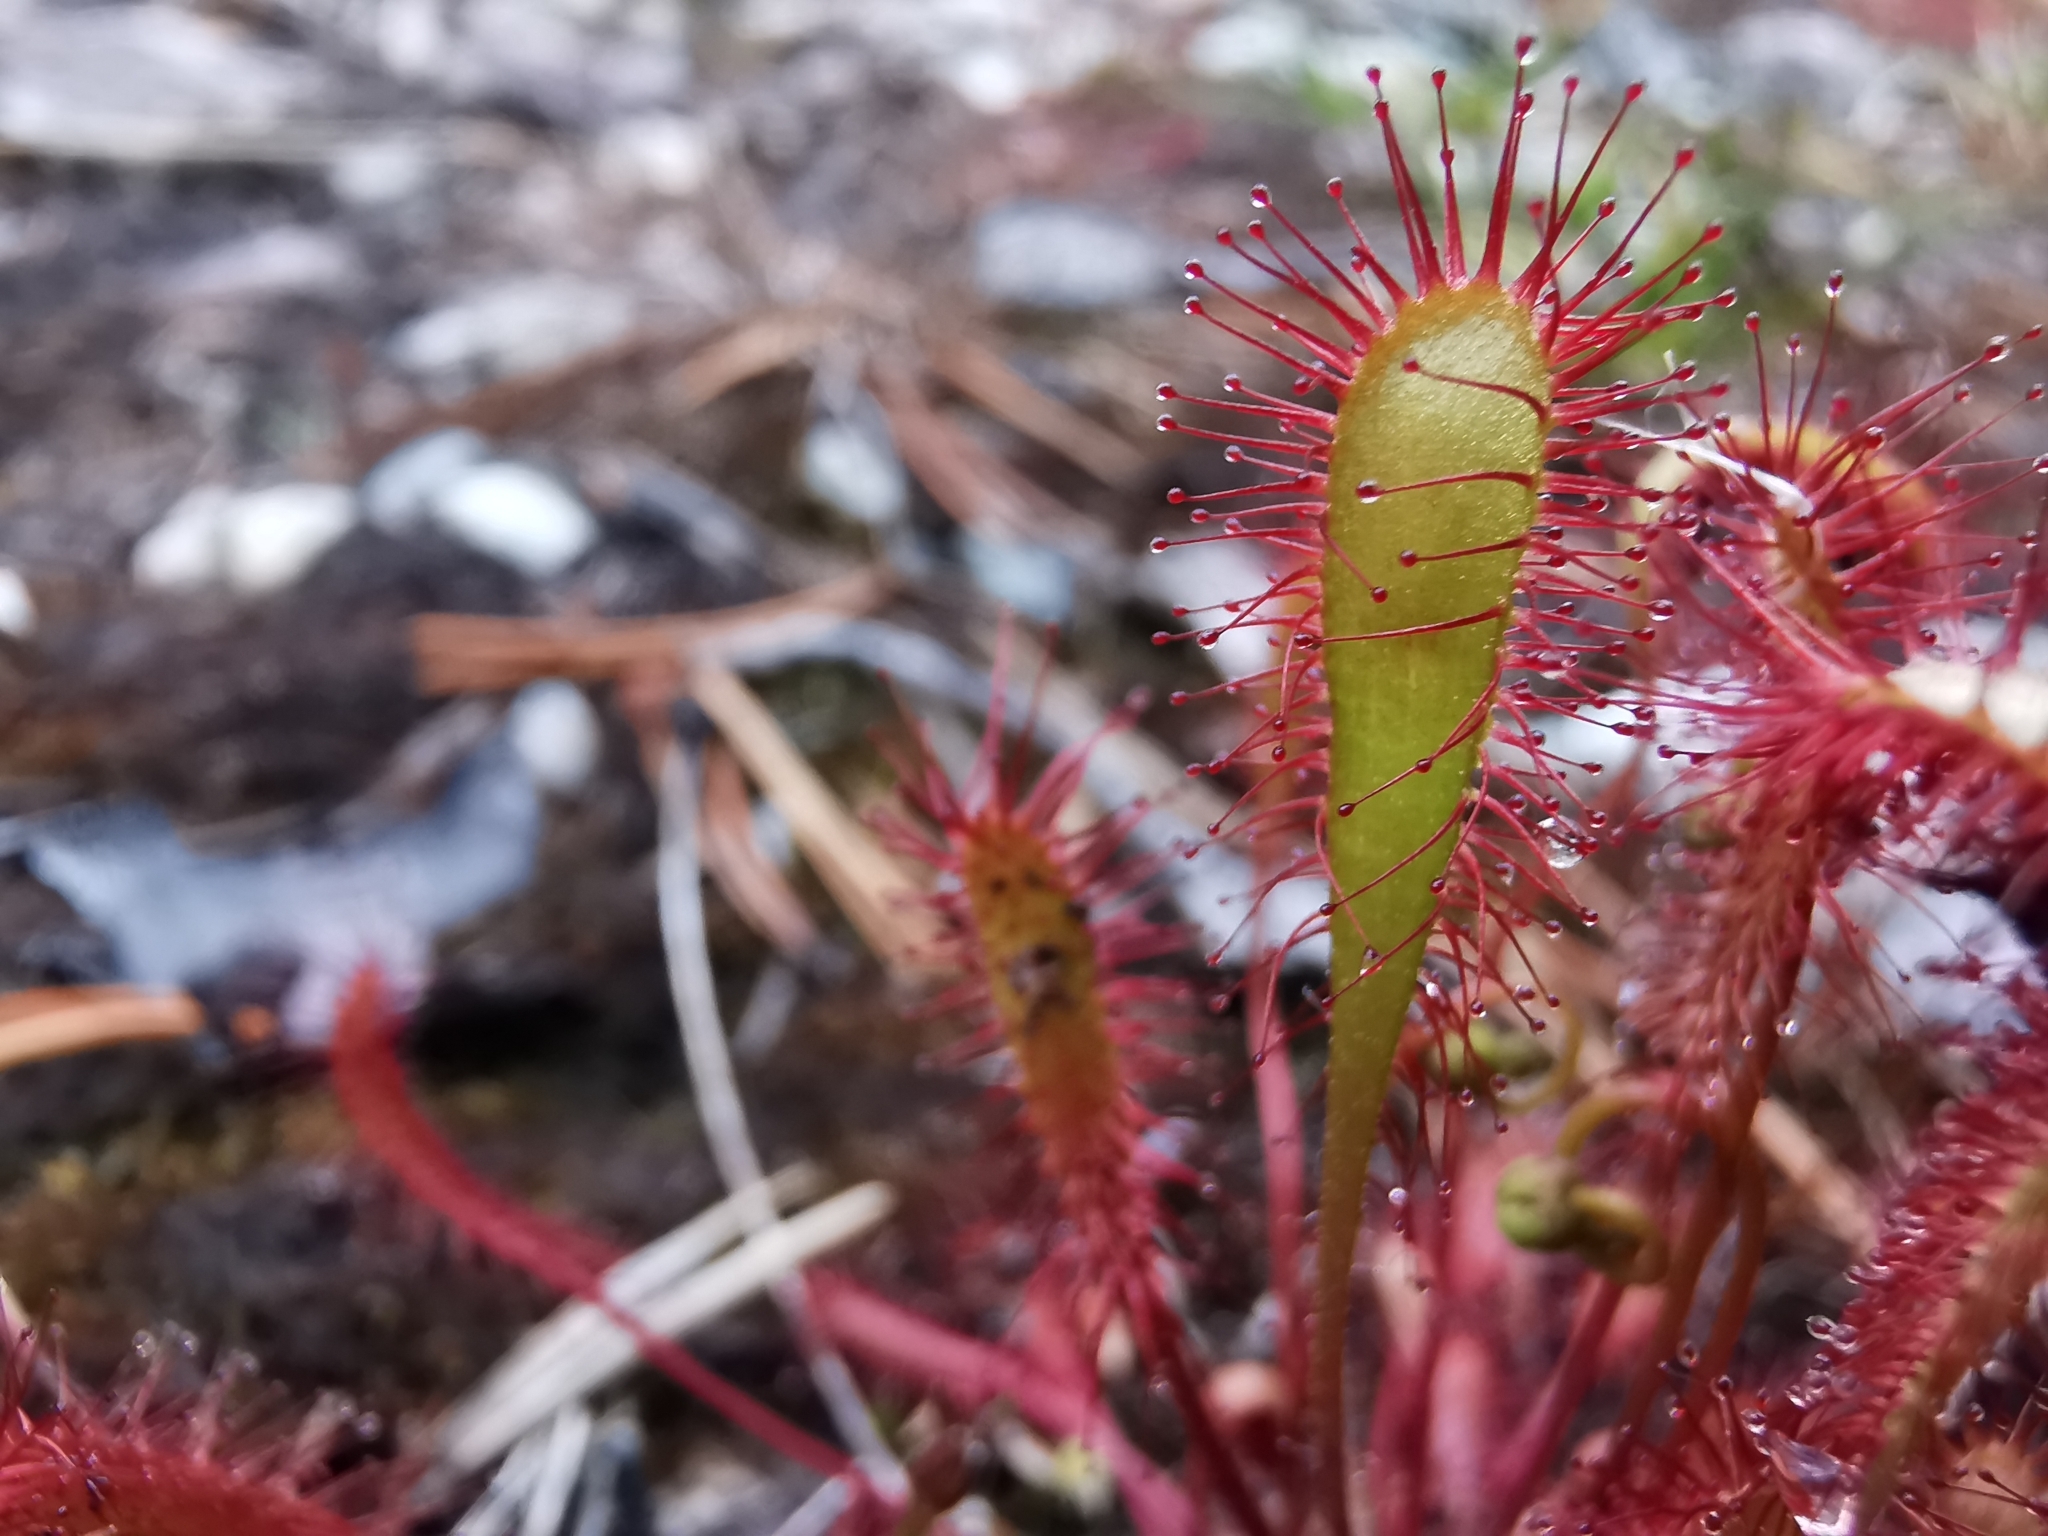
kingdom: Plantae
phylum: Tracheophyta
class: Magnoliopsida
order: Caryophyllales
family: Droseraceae
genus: Drosera
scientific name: Drosera anglica
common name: Great sundew
